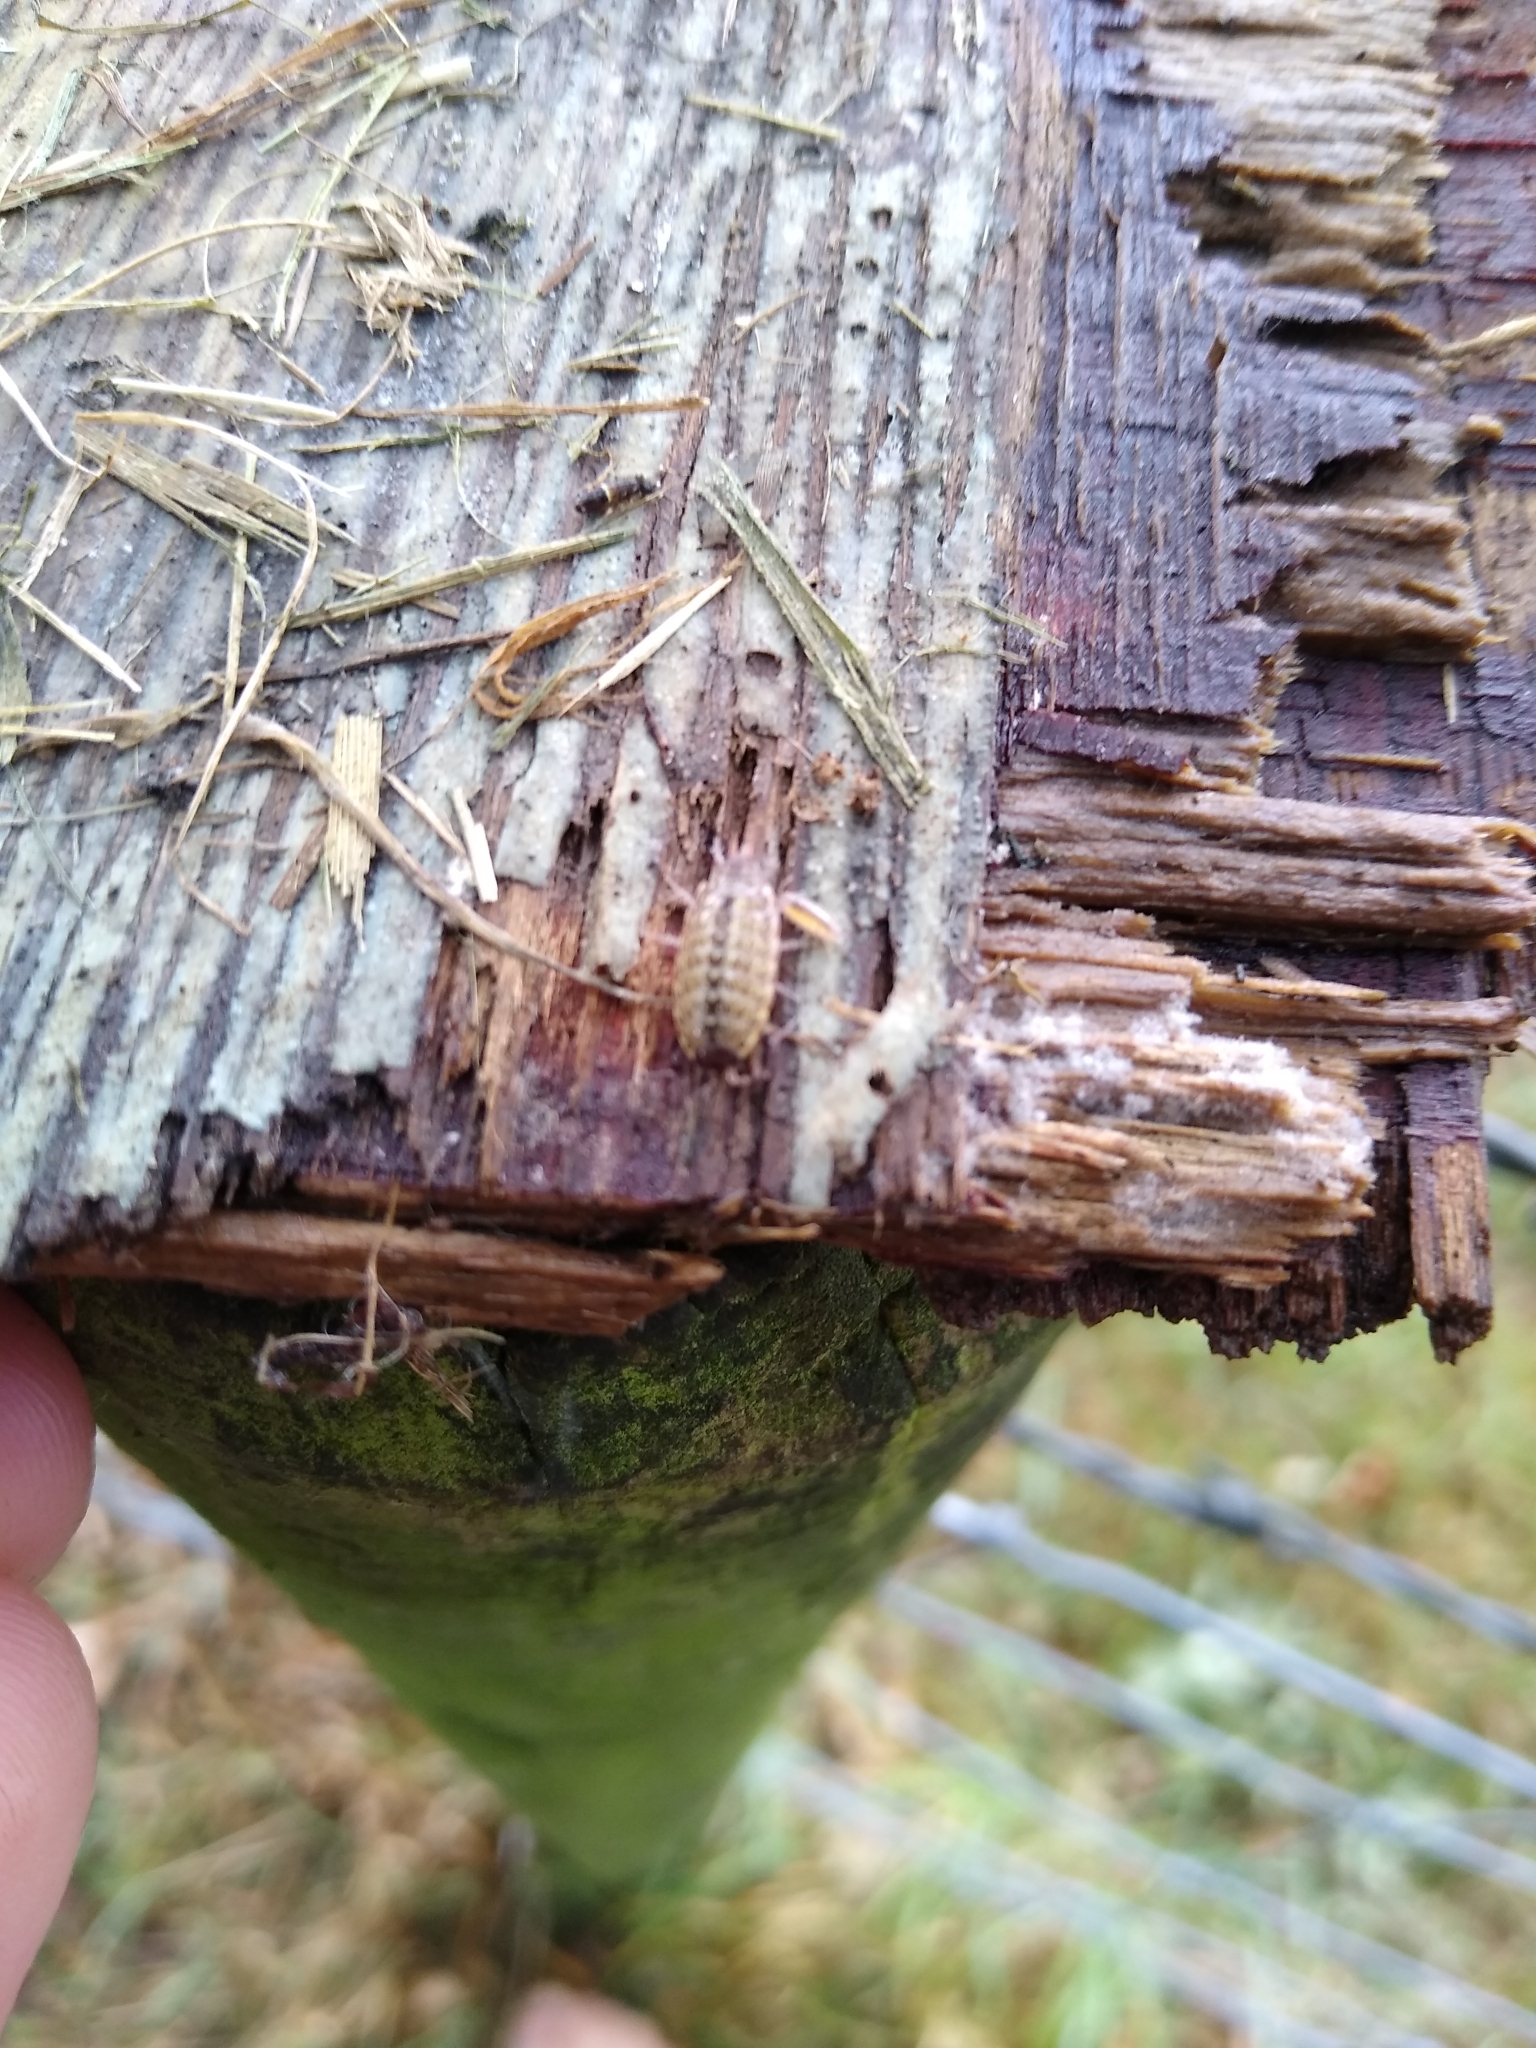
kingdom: Animalia
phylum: Arthropoda
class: Malacostraca
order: Isopoda
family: Philosciidae
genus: Philoscia
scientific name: Philoscia muscorum
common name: Common striped woodlouse
